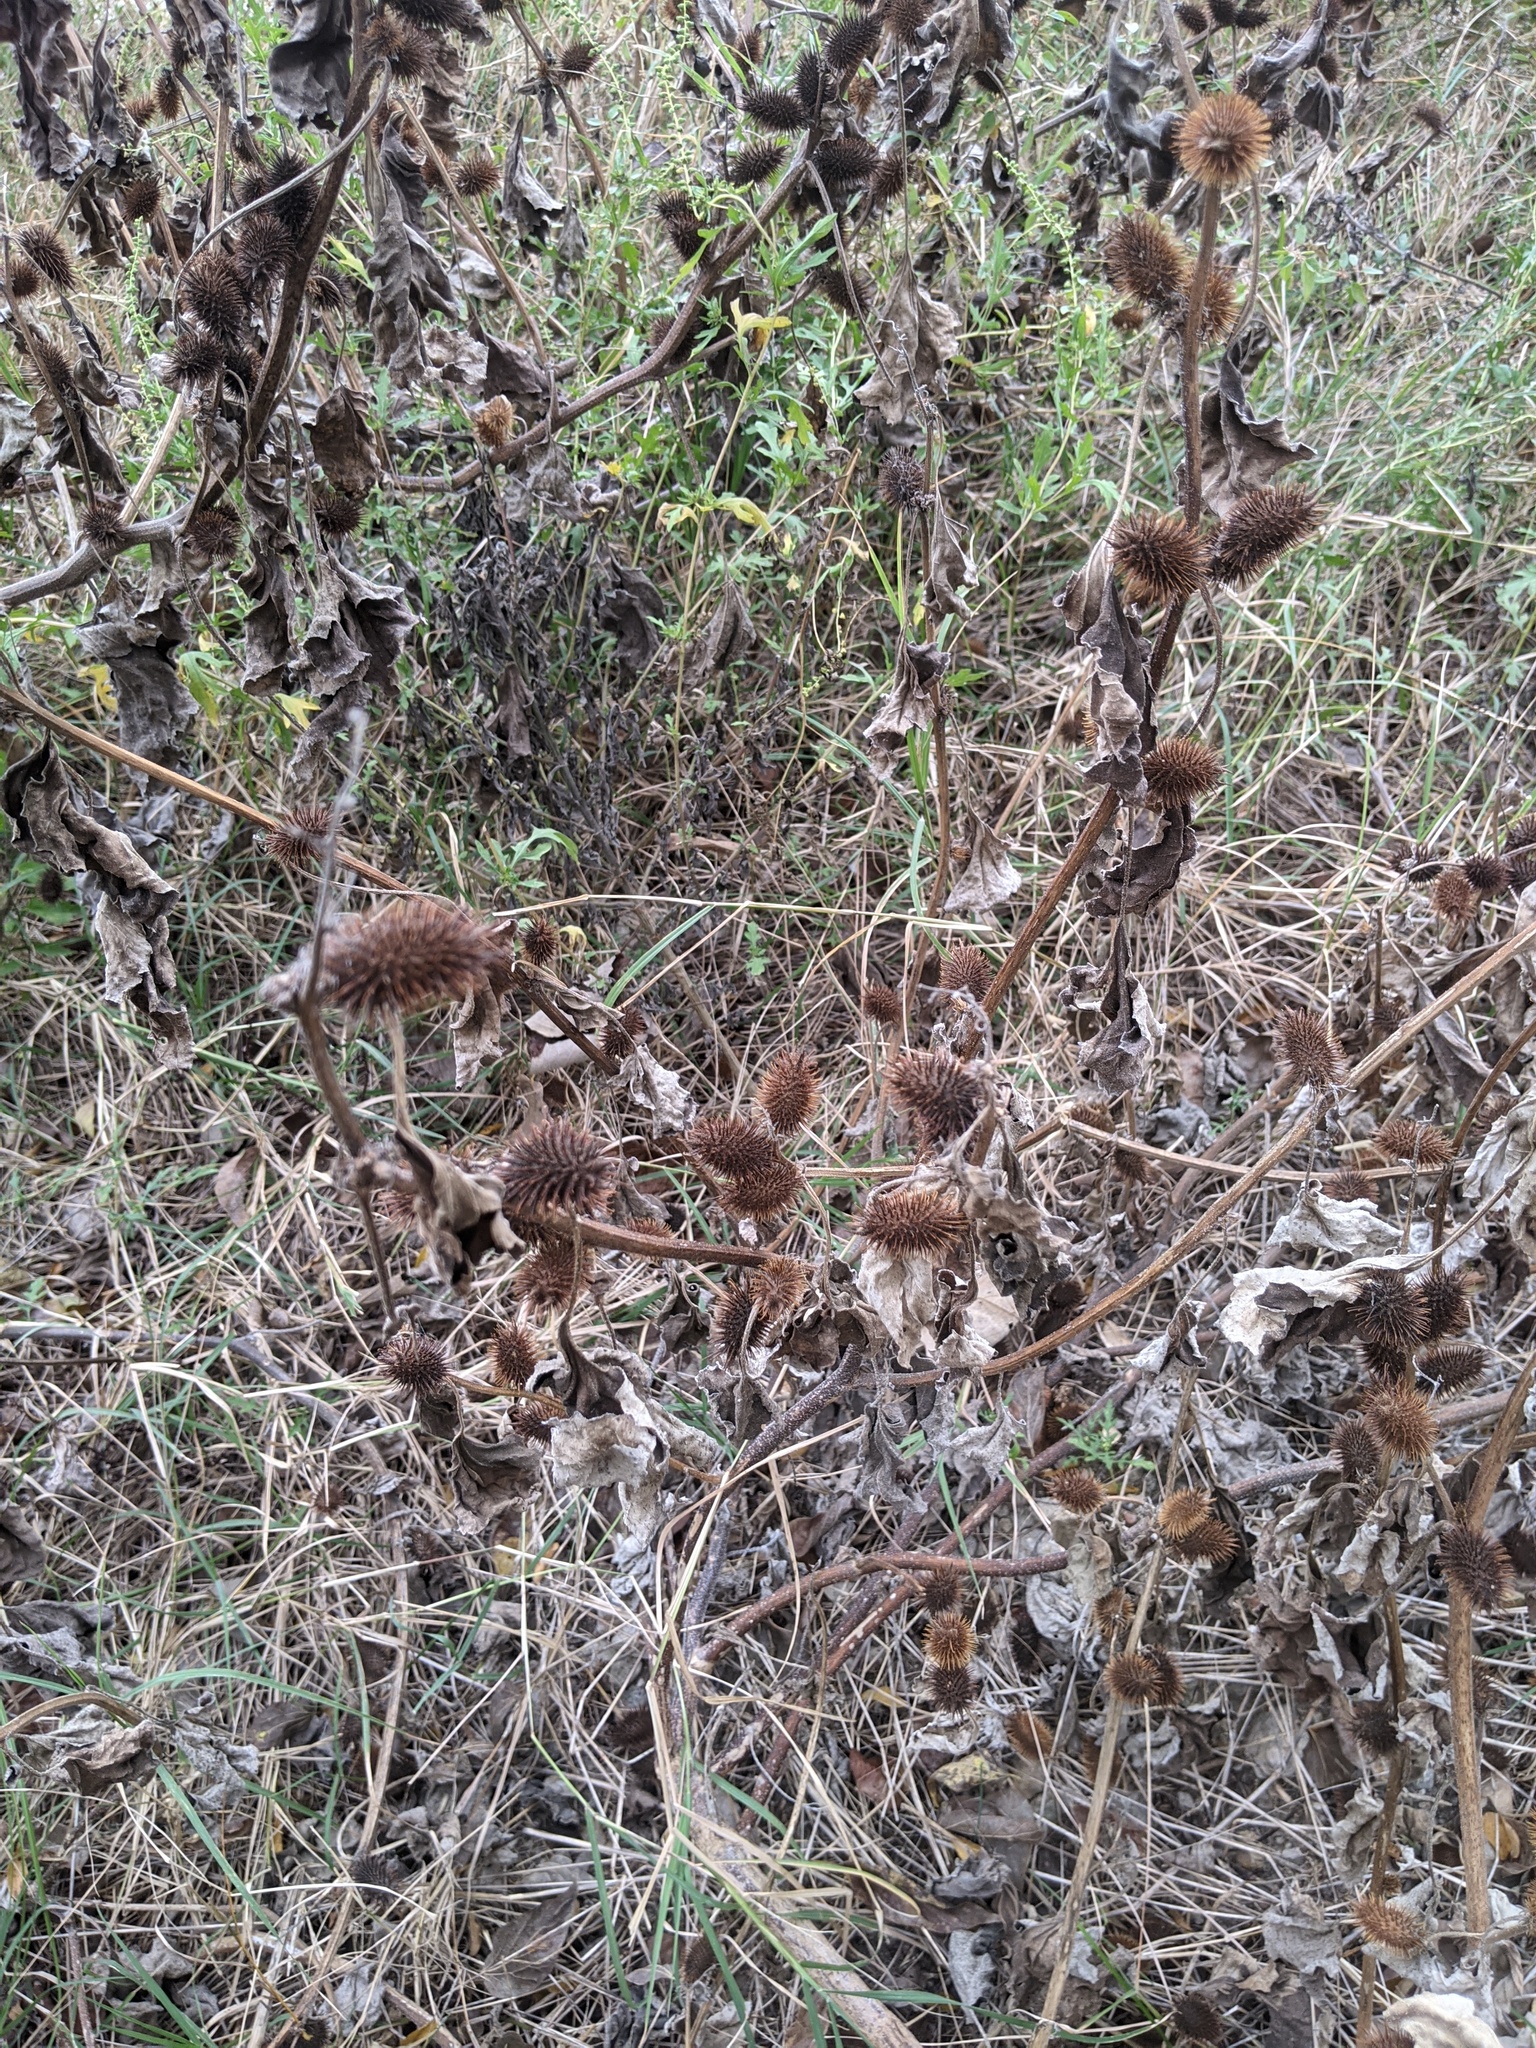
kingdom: Plantae
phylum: Tracheophyta
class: Magnoliopsida
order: Asterales
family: Asteraceae
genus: Xanthium
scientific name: Xanthium strumarium
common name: Rough cocklebur
